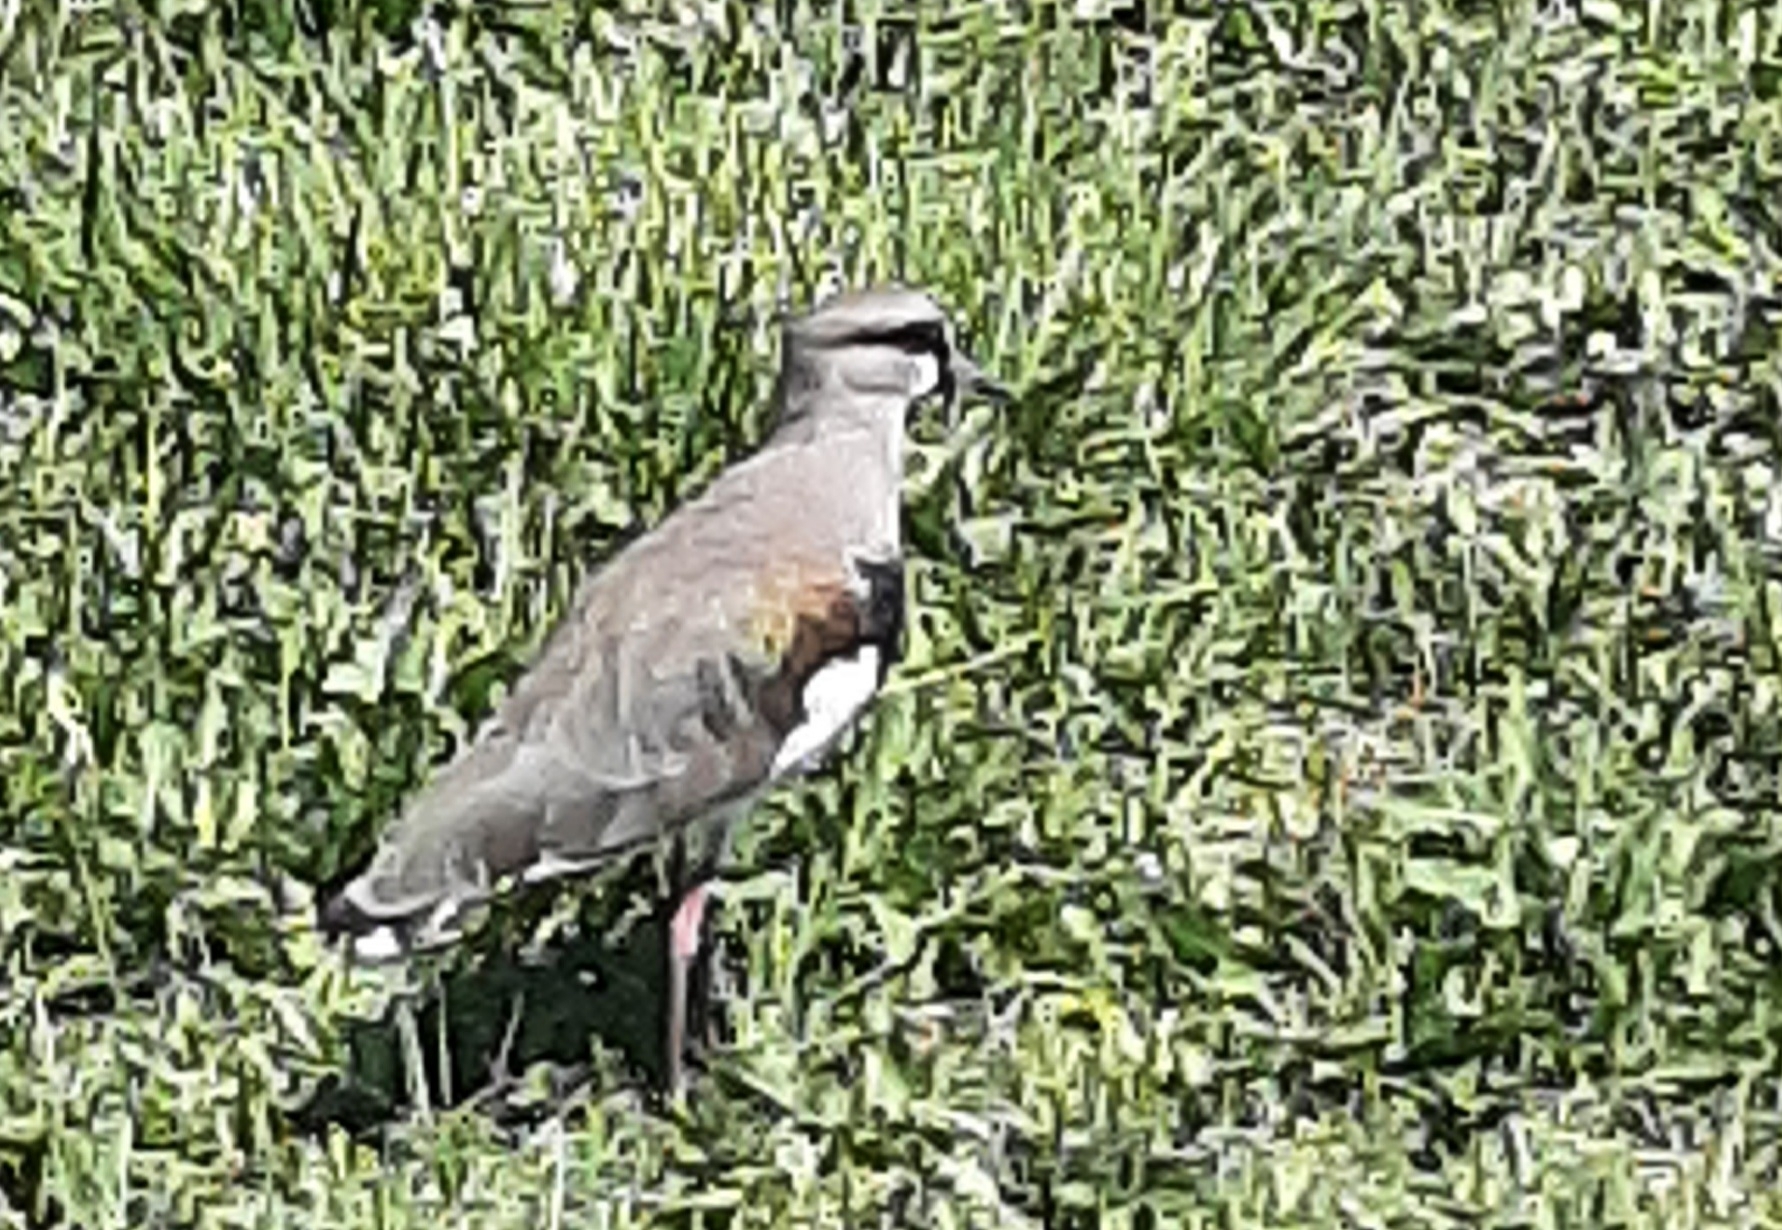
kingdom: Animalia
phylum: Chordata
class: Aves
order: Charadriiformes
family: Charadriidae
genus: Vanellus
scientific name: Vanellus chilensis
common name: Southern lapwing
